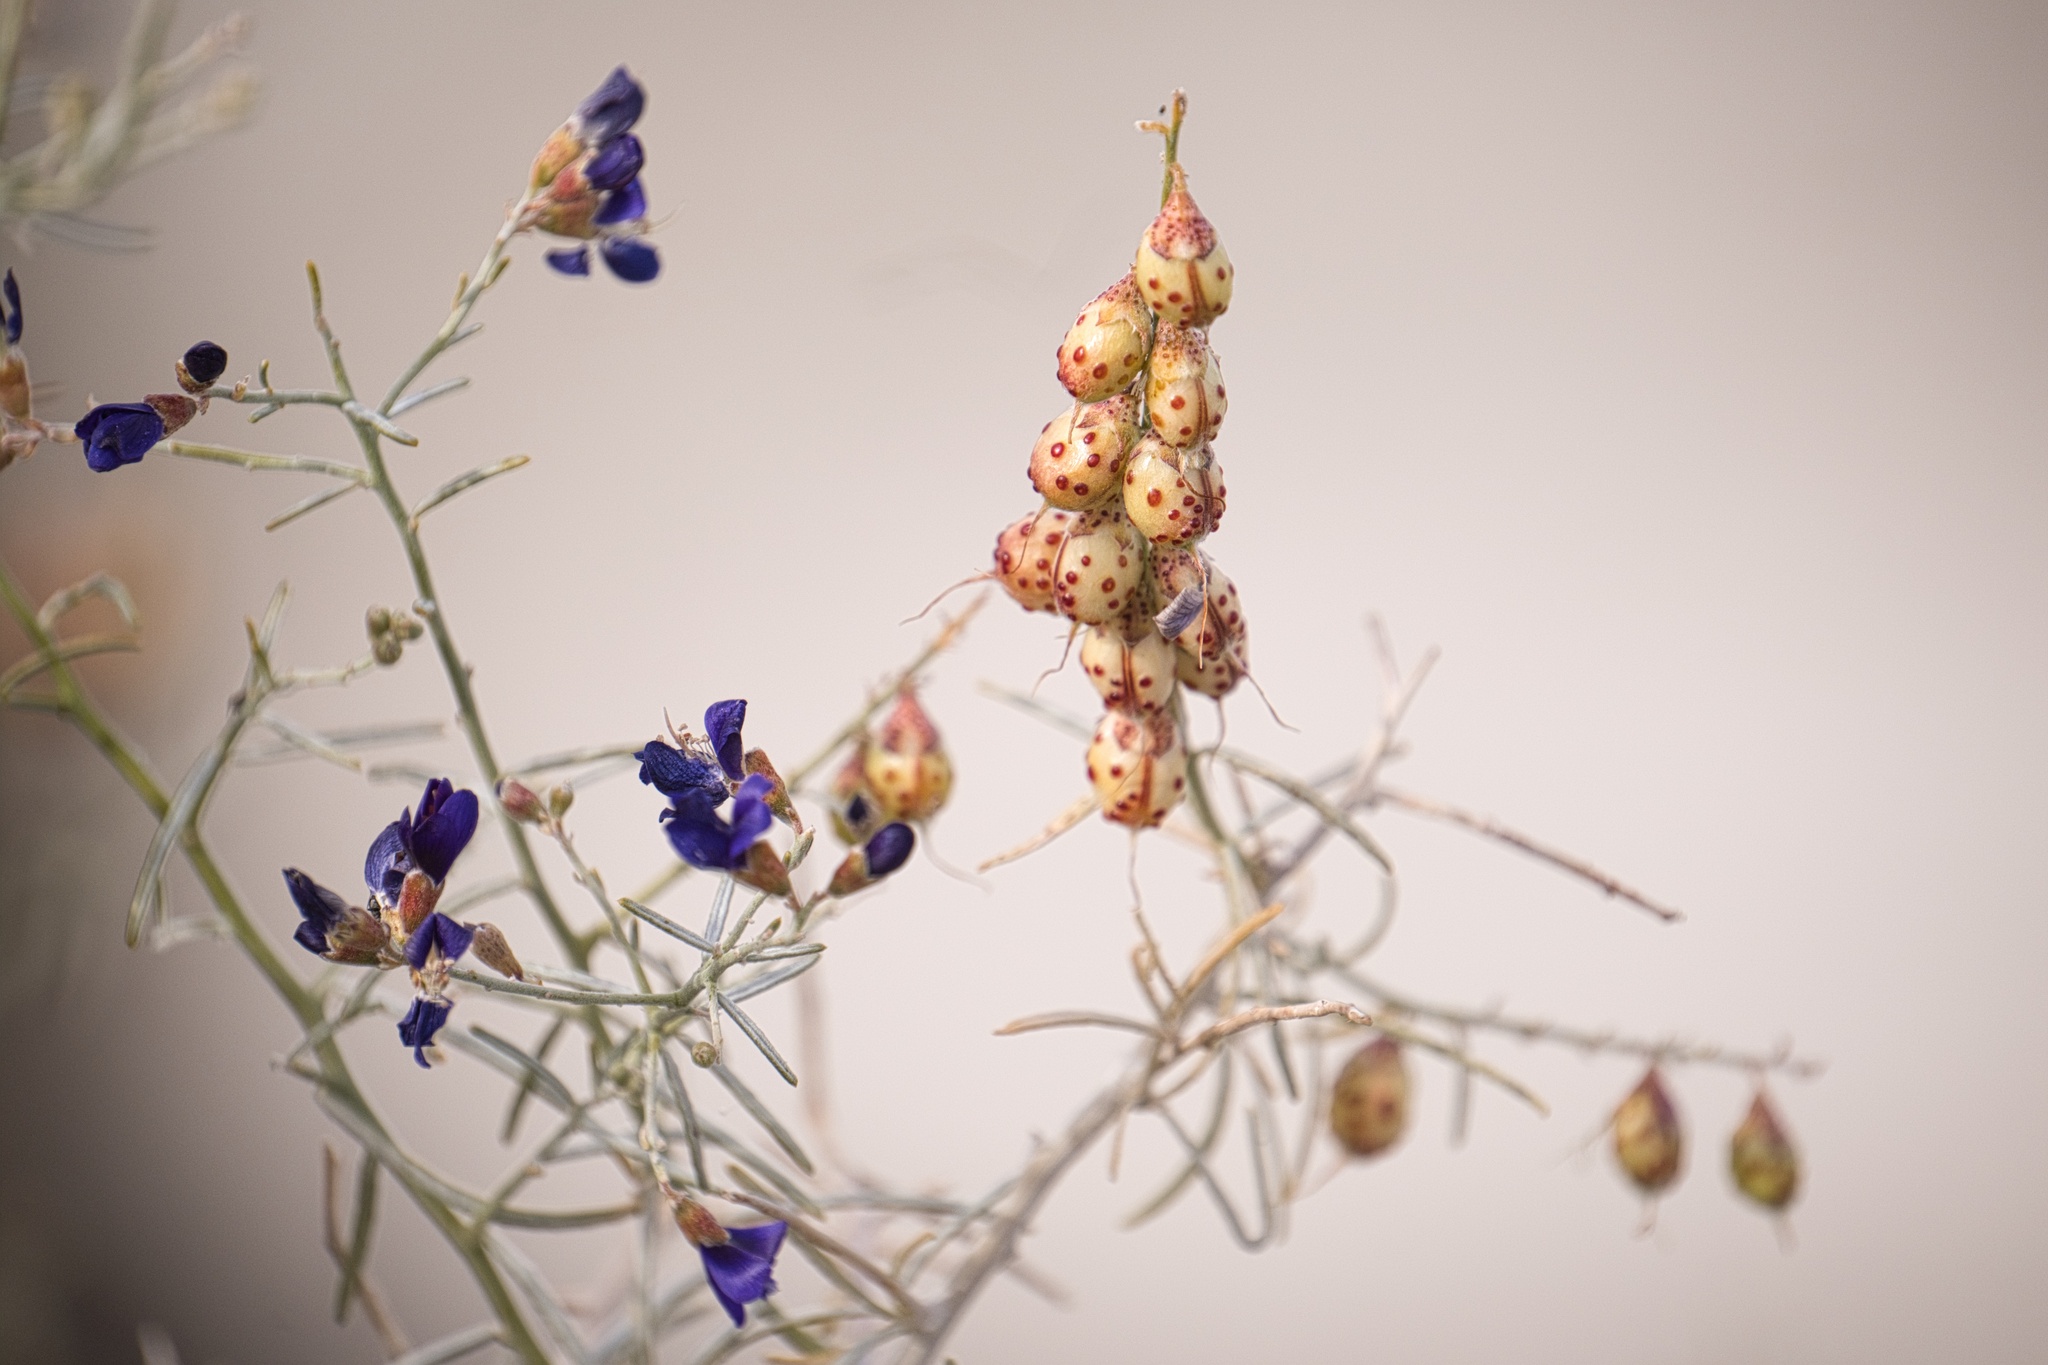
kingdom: Plantae
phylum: Tracheophyta
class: Magnoliopsida
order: Fabales
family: Fabaceae
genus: Psorothamnus
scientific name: Psorothamnus schottii
